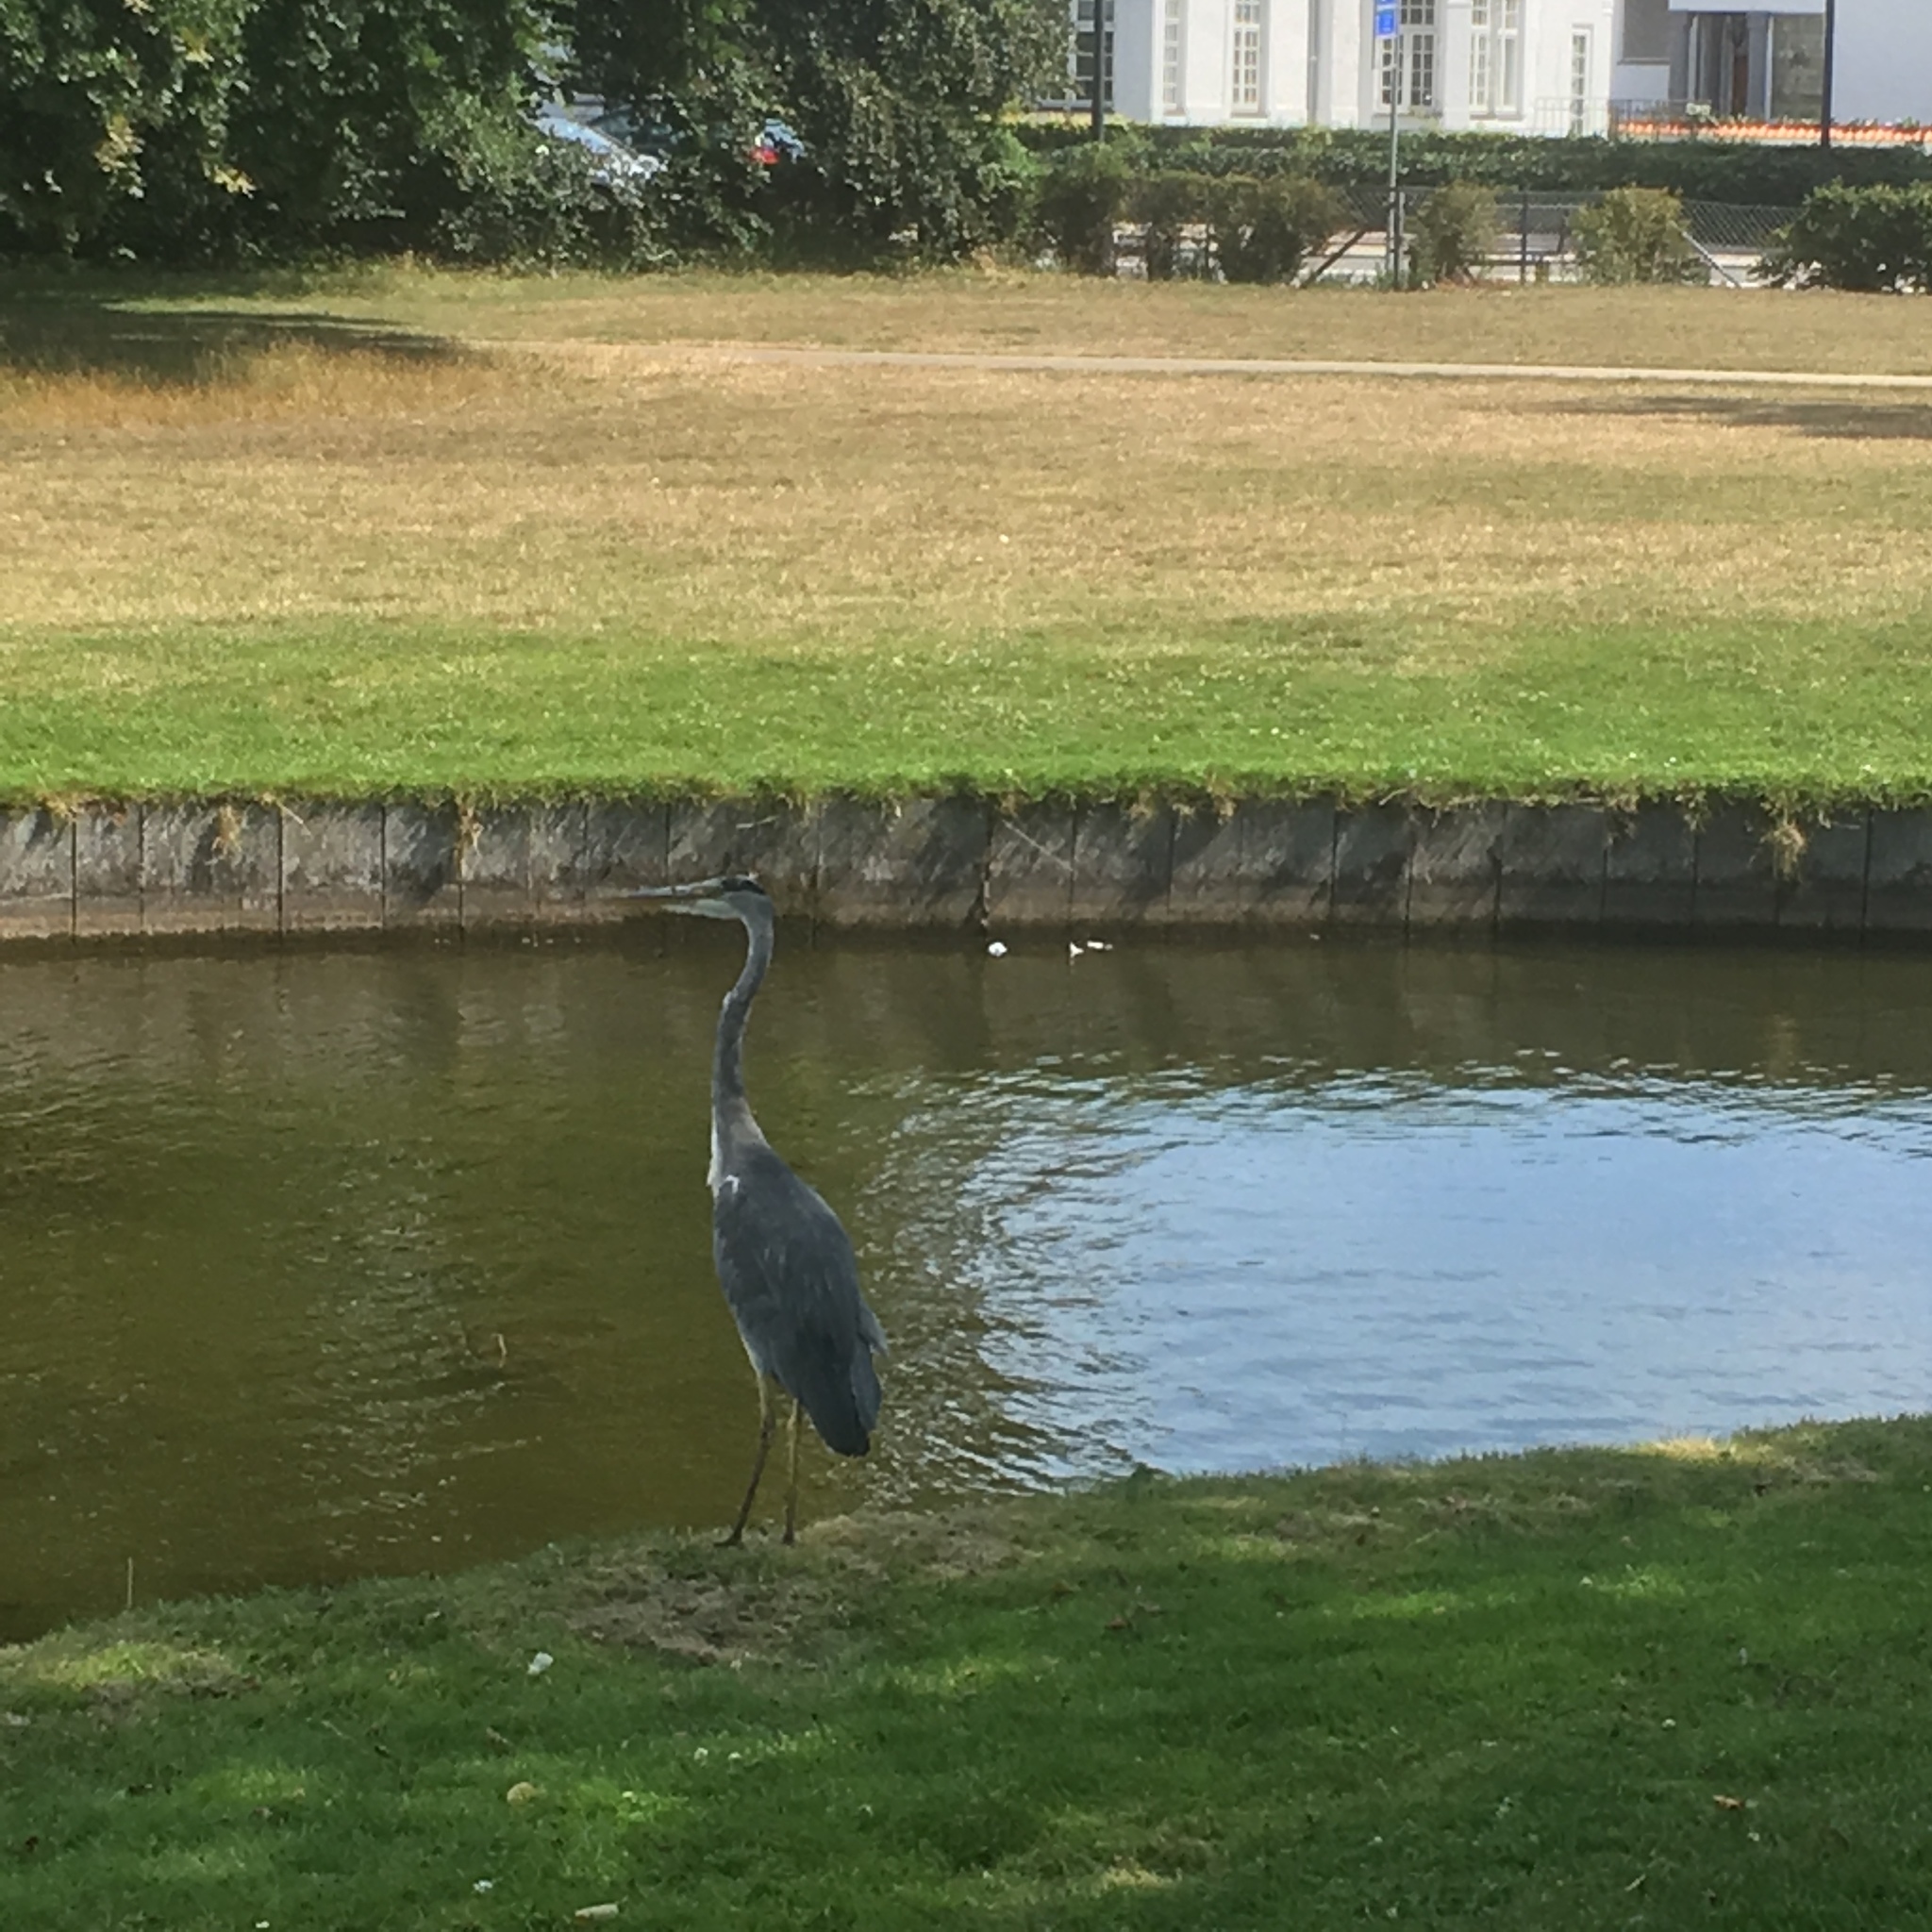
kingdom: Animalia
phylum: Chordata
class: Aves
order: Pelecaniformes
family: Ardeidae
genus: Ardea
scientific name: Ardea cinerea
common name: Grey heron
